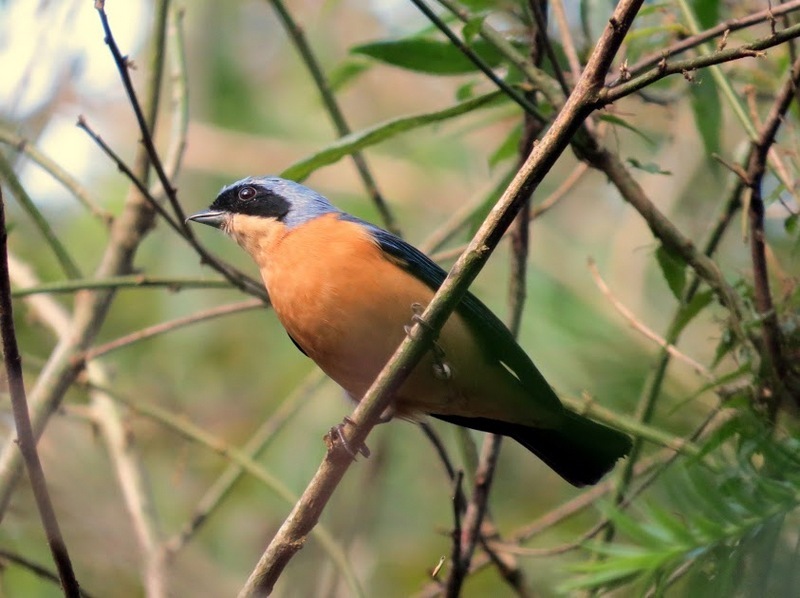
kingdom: Animalia
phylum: Chordata
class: Aves
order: Passeriformes
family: Thraupidae
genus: Pipraeidea
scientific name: Pipraeidea melanonota
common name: Fawn-breasted tanager
